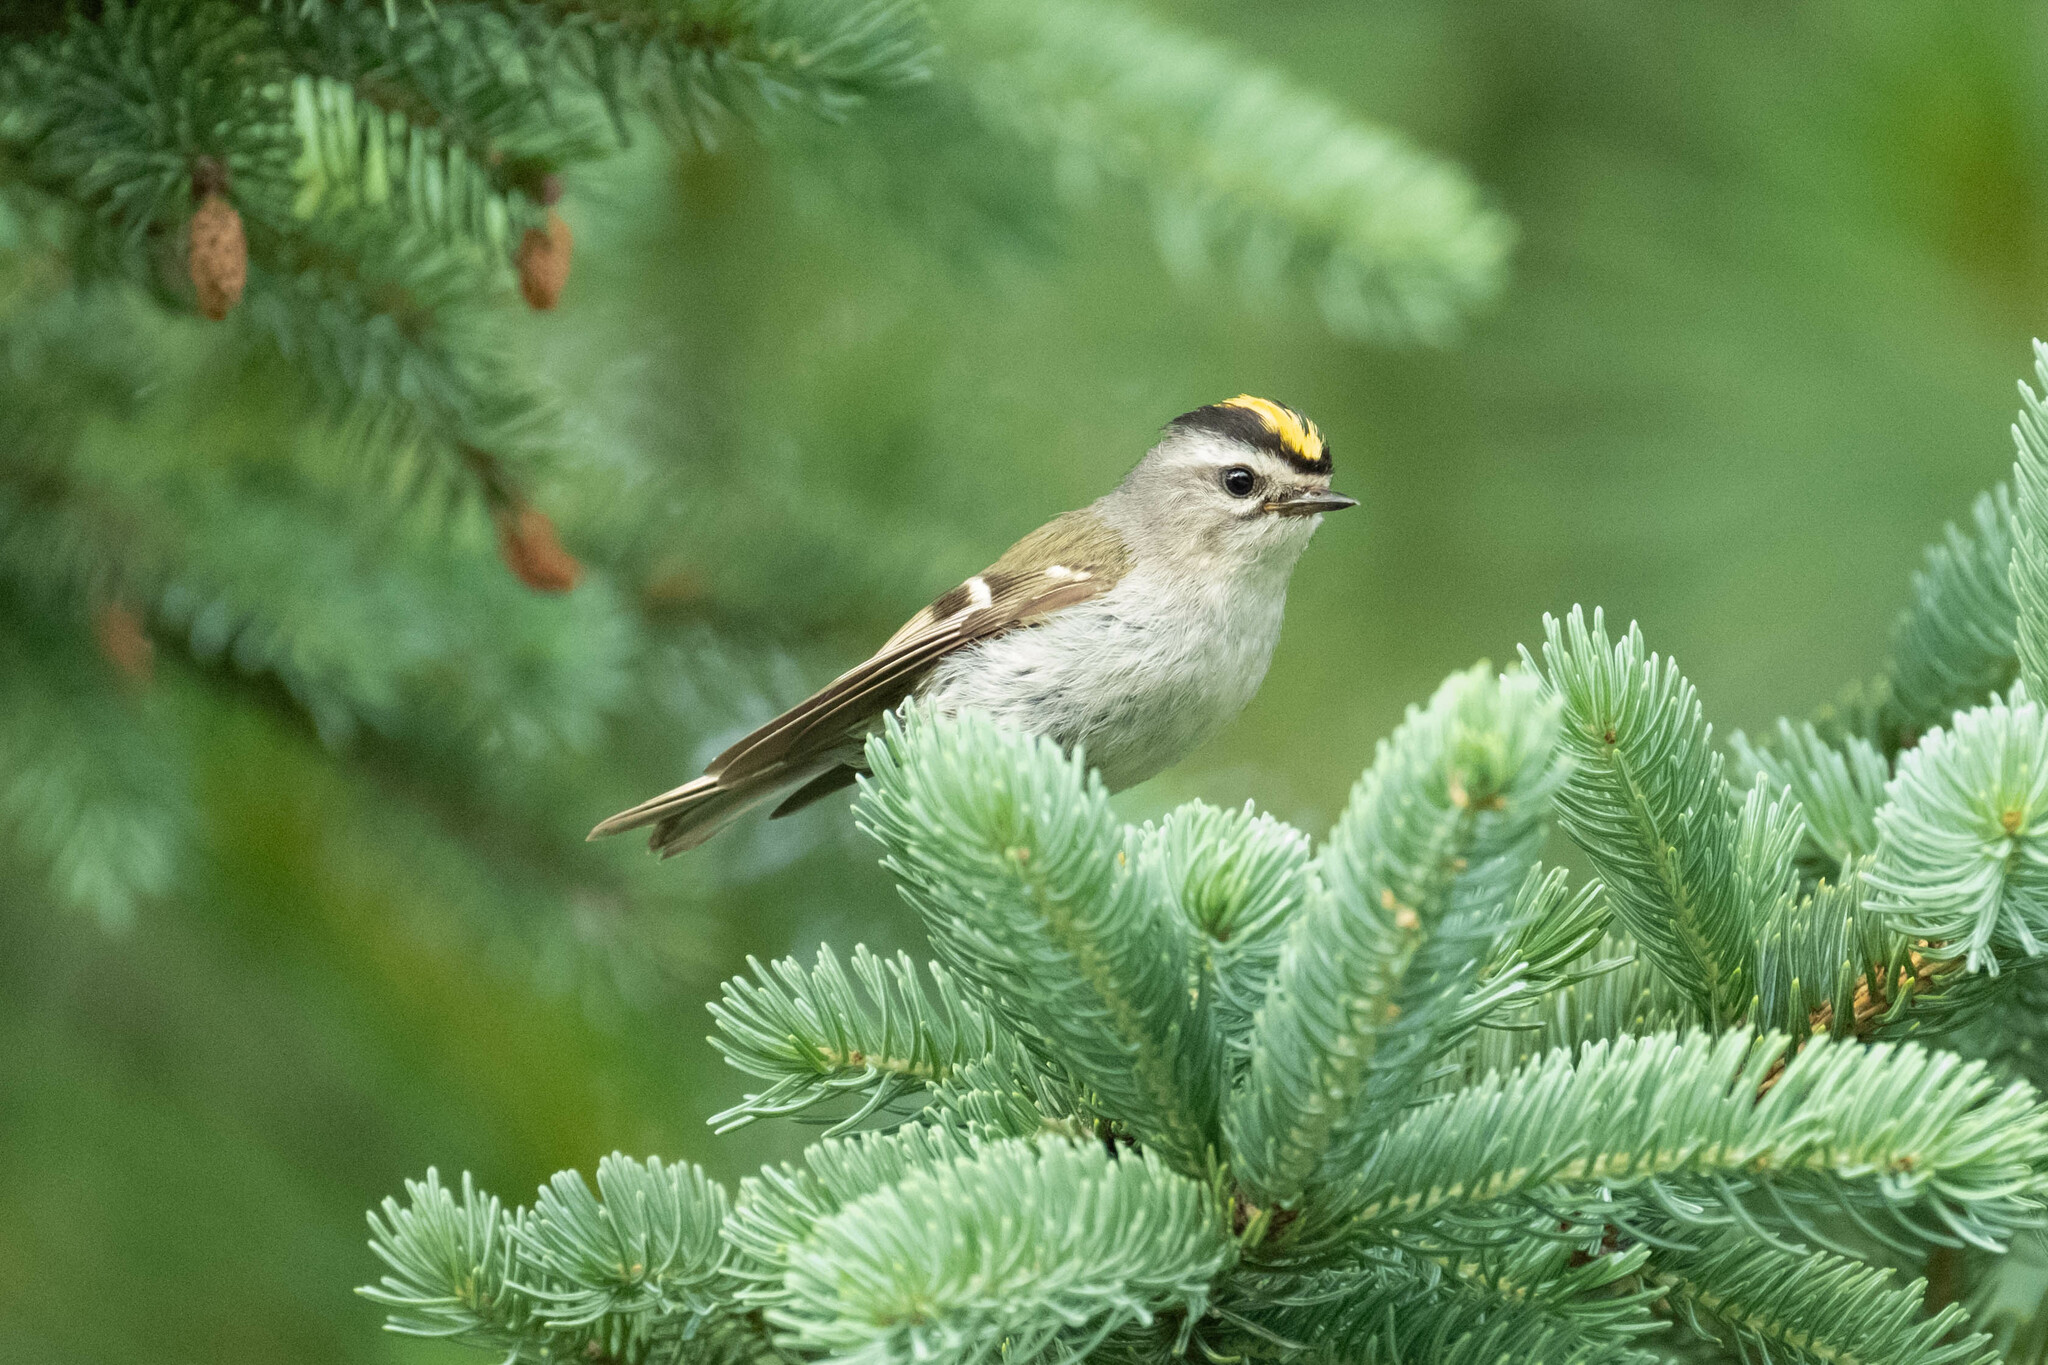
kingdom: Animalia
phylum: Chordata
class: Aves
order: Passeriformes
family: Regulidae
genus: Regulus
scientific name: Regulus satrapa
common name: Golden-crowned kinglet
